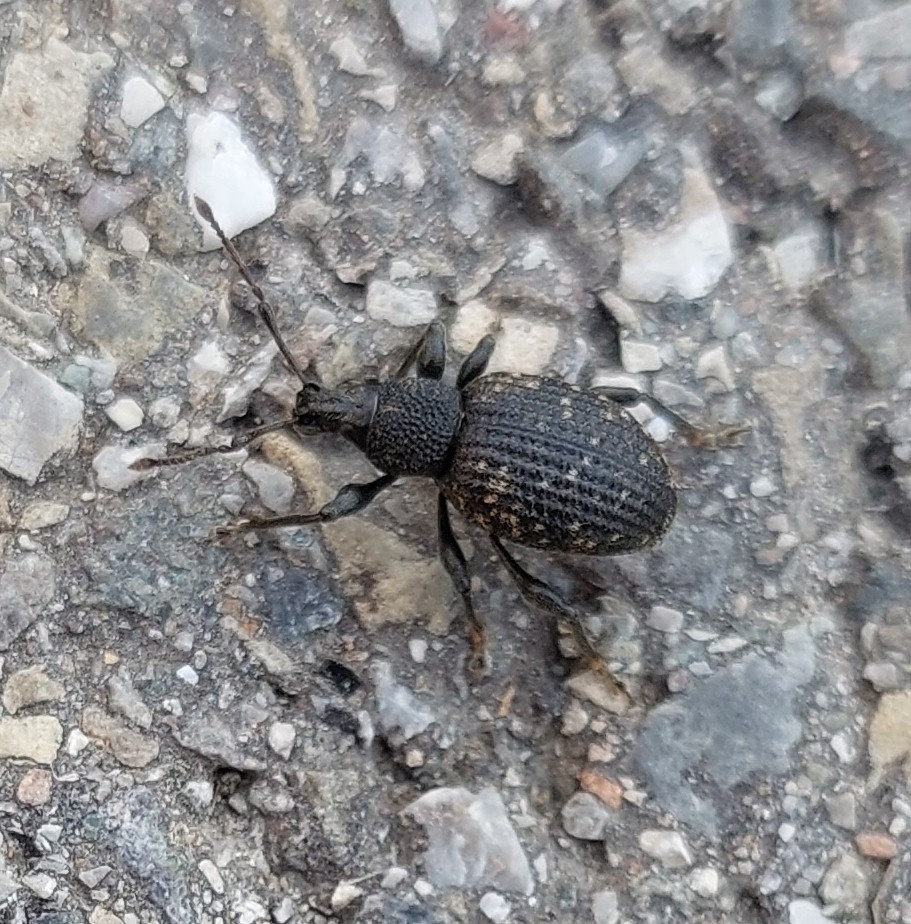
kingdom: Animalia
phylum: Arthropoda
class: Insecta
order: Coleoptera
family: Curculionidae
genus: Otiorhynchus
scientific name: Otiorhynchus sulcatus
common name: Black vine weevil
